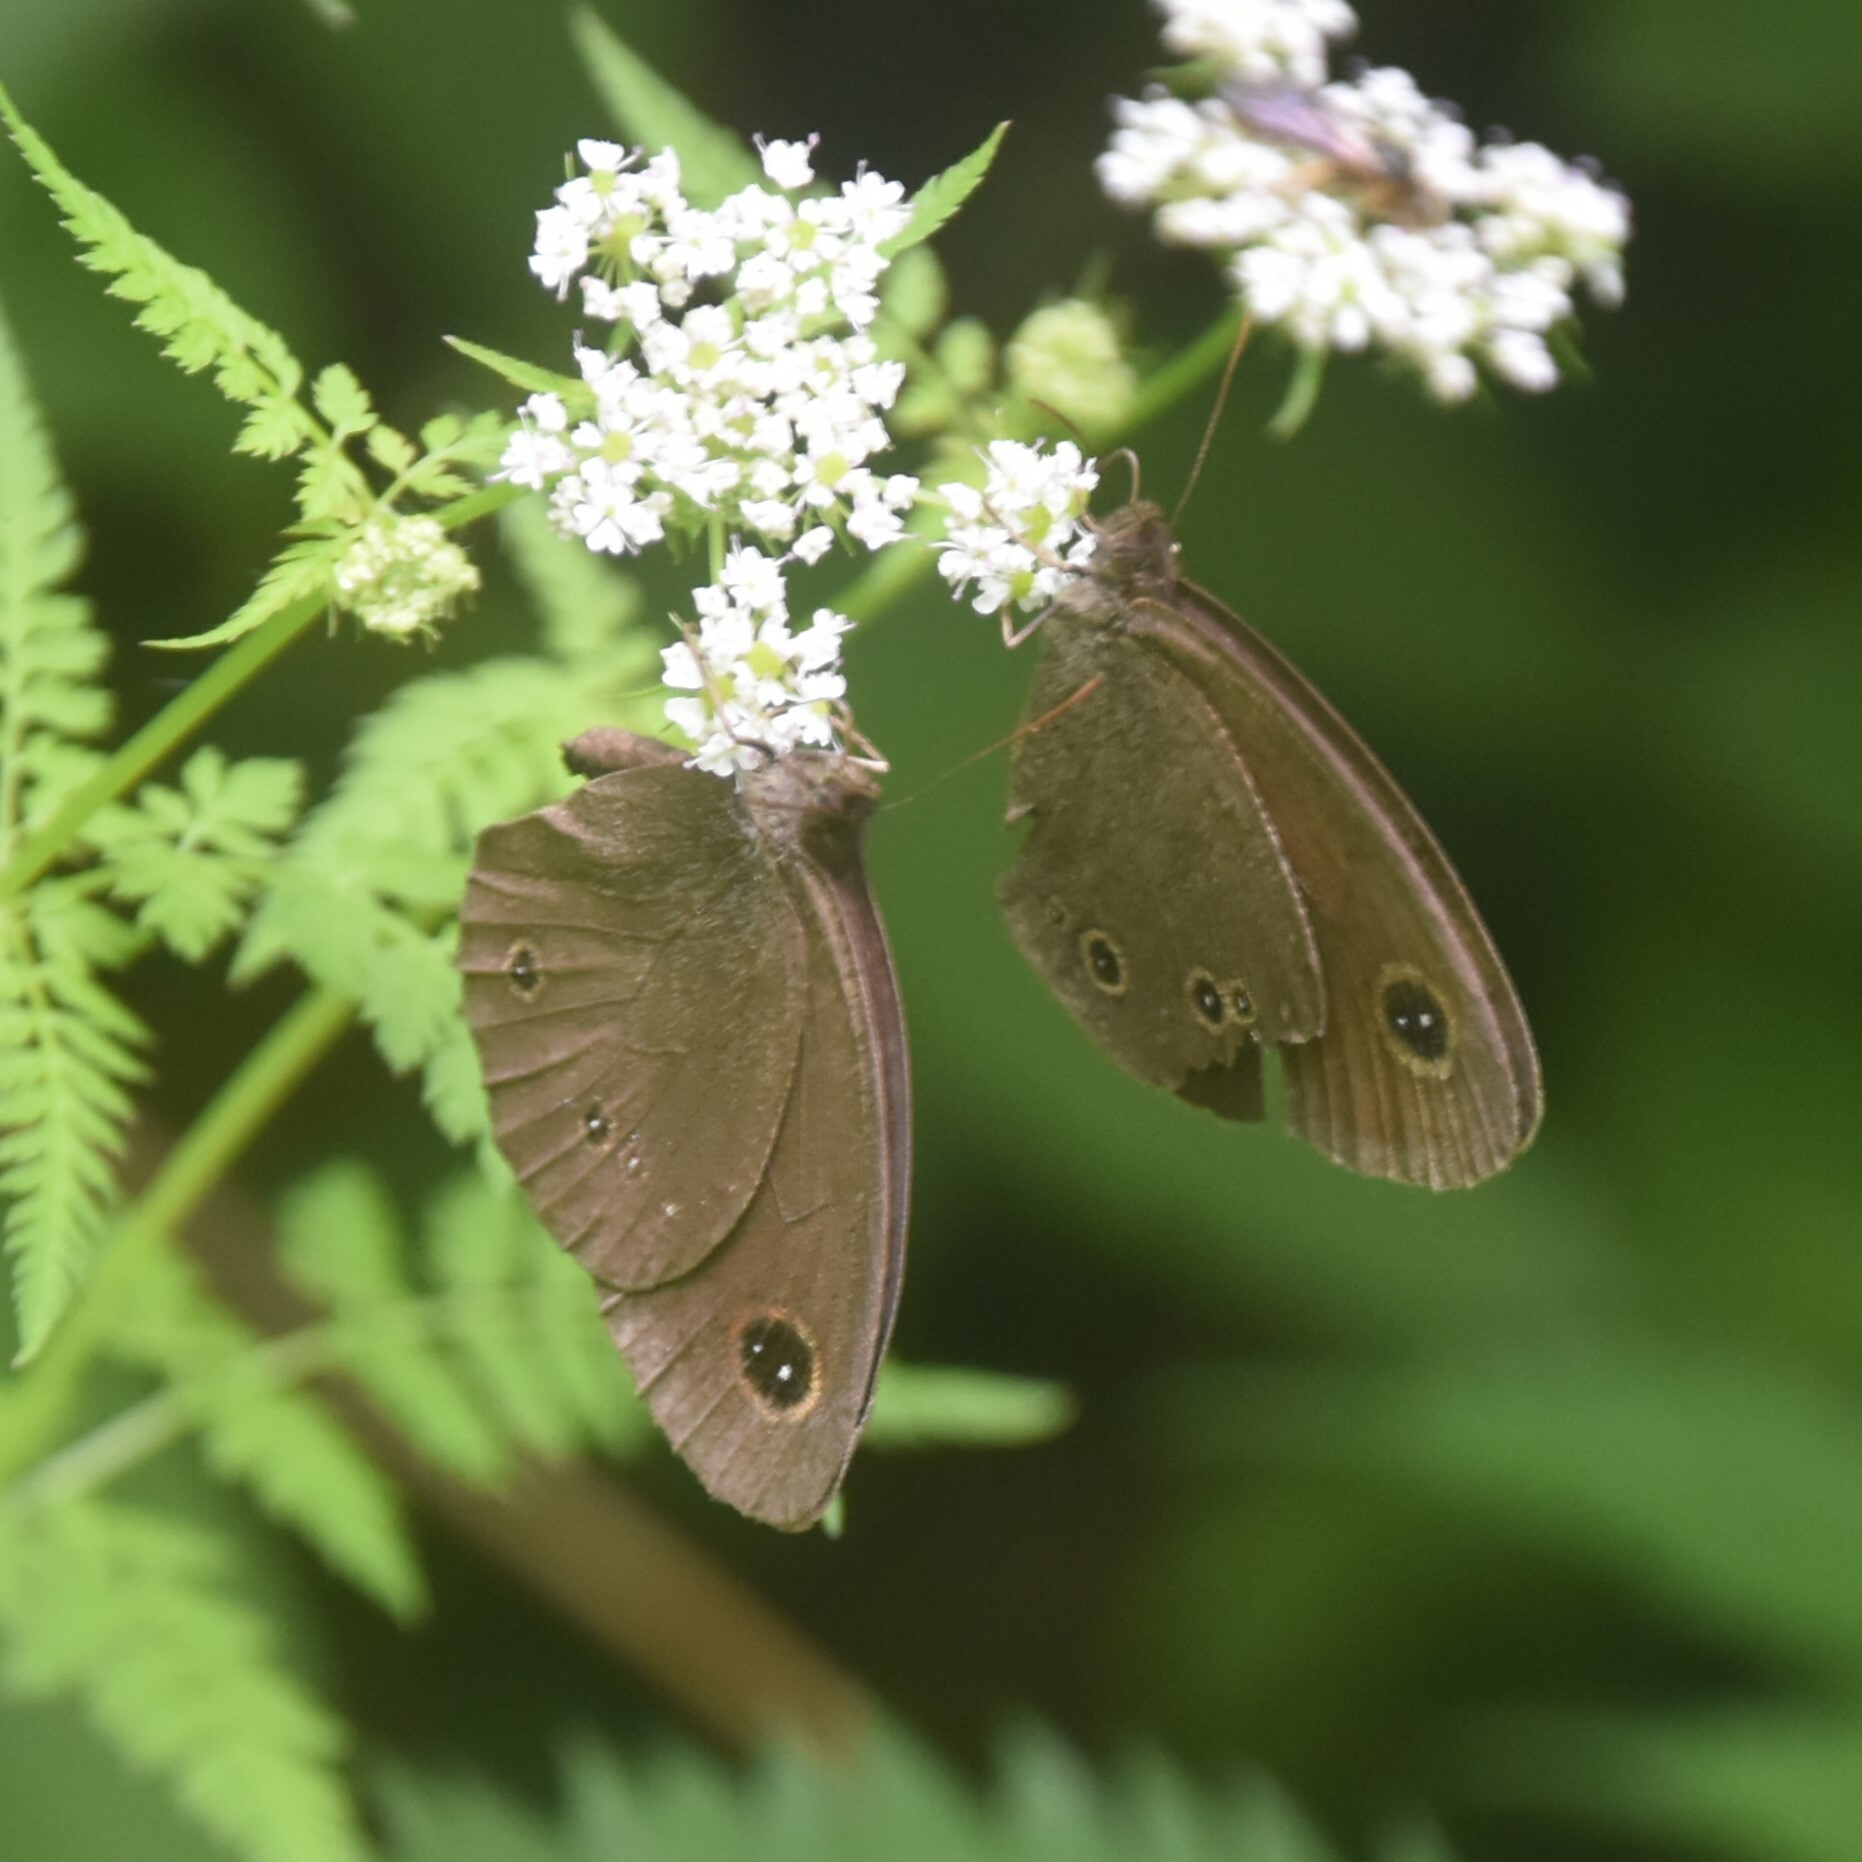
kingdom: Animalia
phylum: Arthropoda
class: Insecta
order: Lepidoptera
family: Nymphalidae
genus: Callerebia
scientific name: Callerebia nirmala
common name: Common argus
